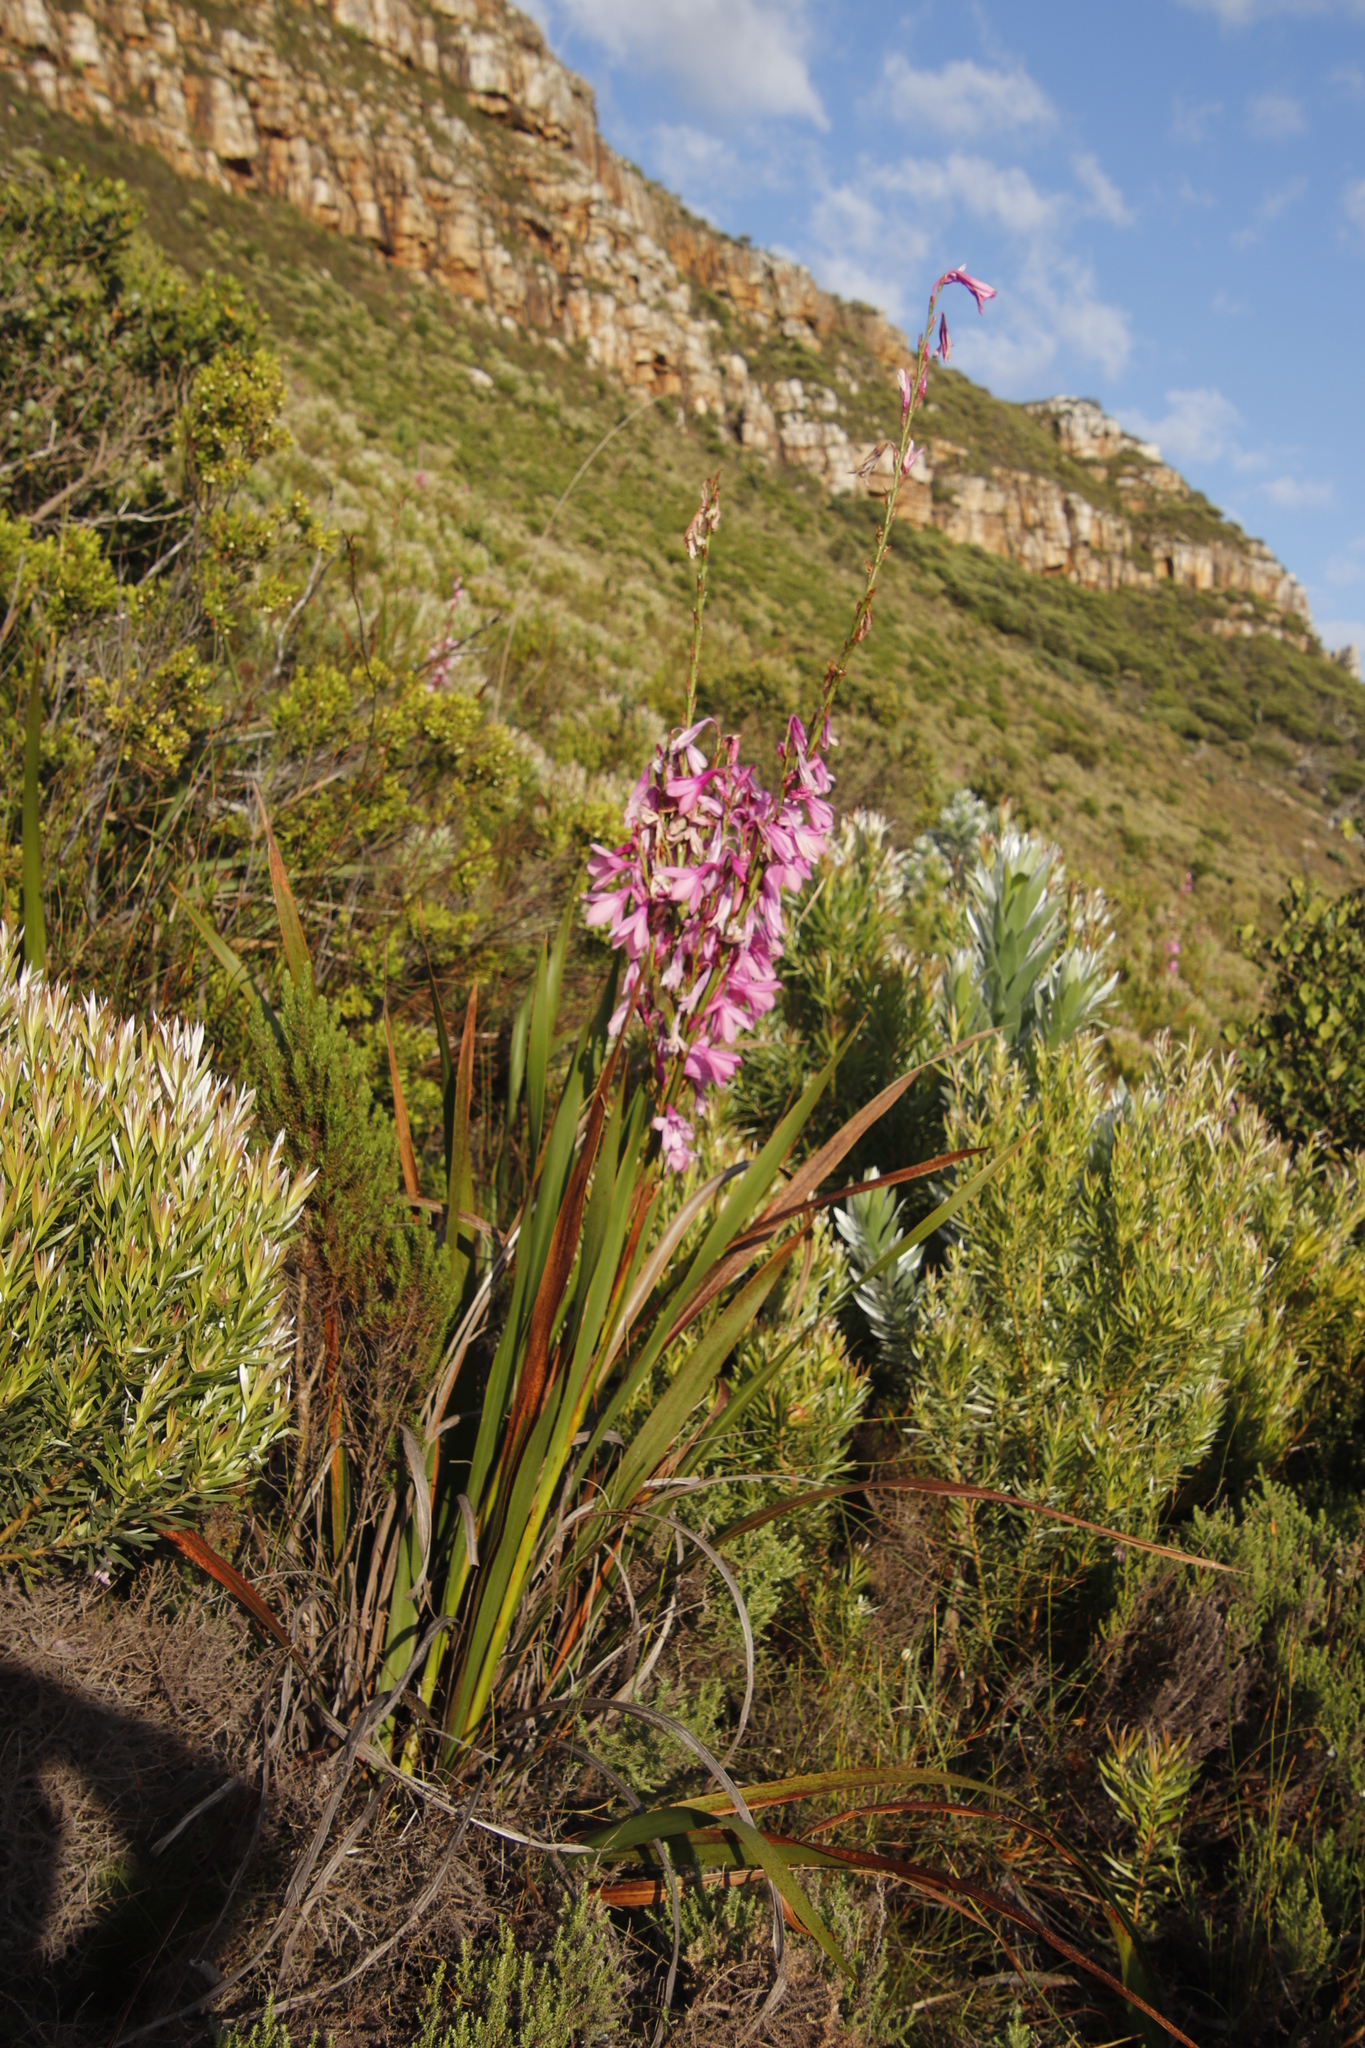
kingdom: Plantae
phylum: Tracheophyta
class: Liliopsida
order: Asparagales
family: Iridaceae
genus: Watsonia
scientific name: Watsonia borbonica
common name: Bugle-lily
